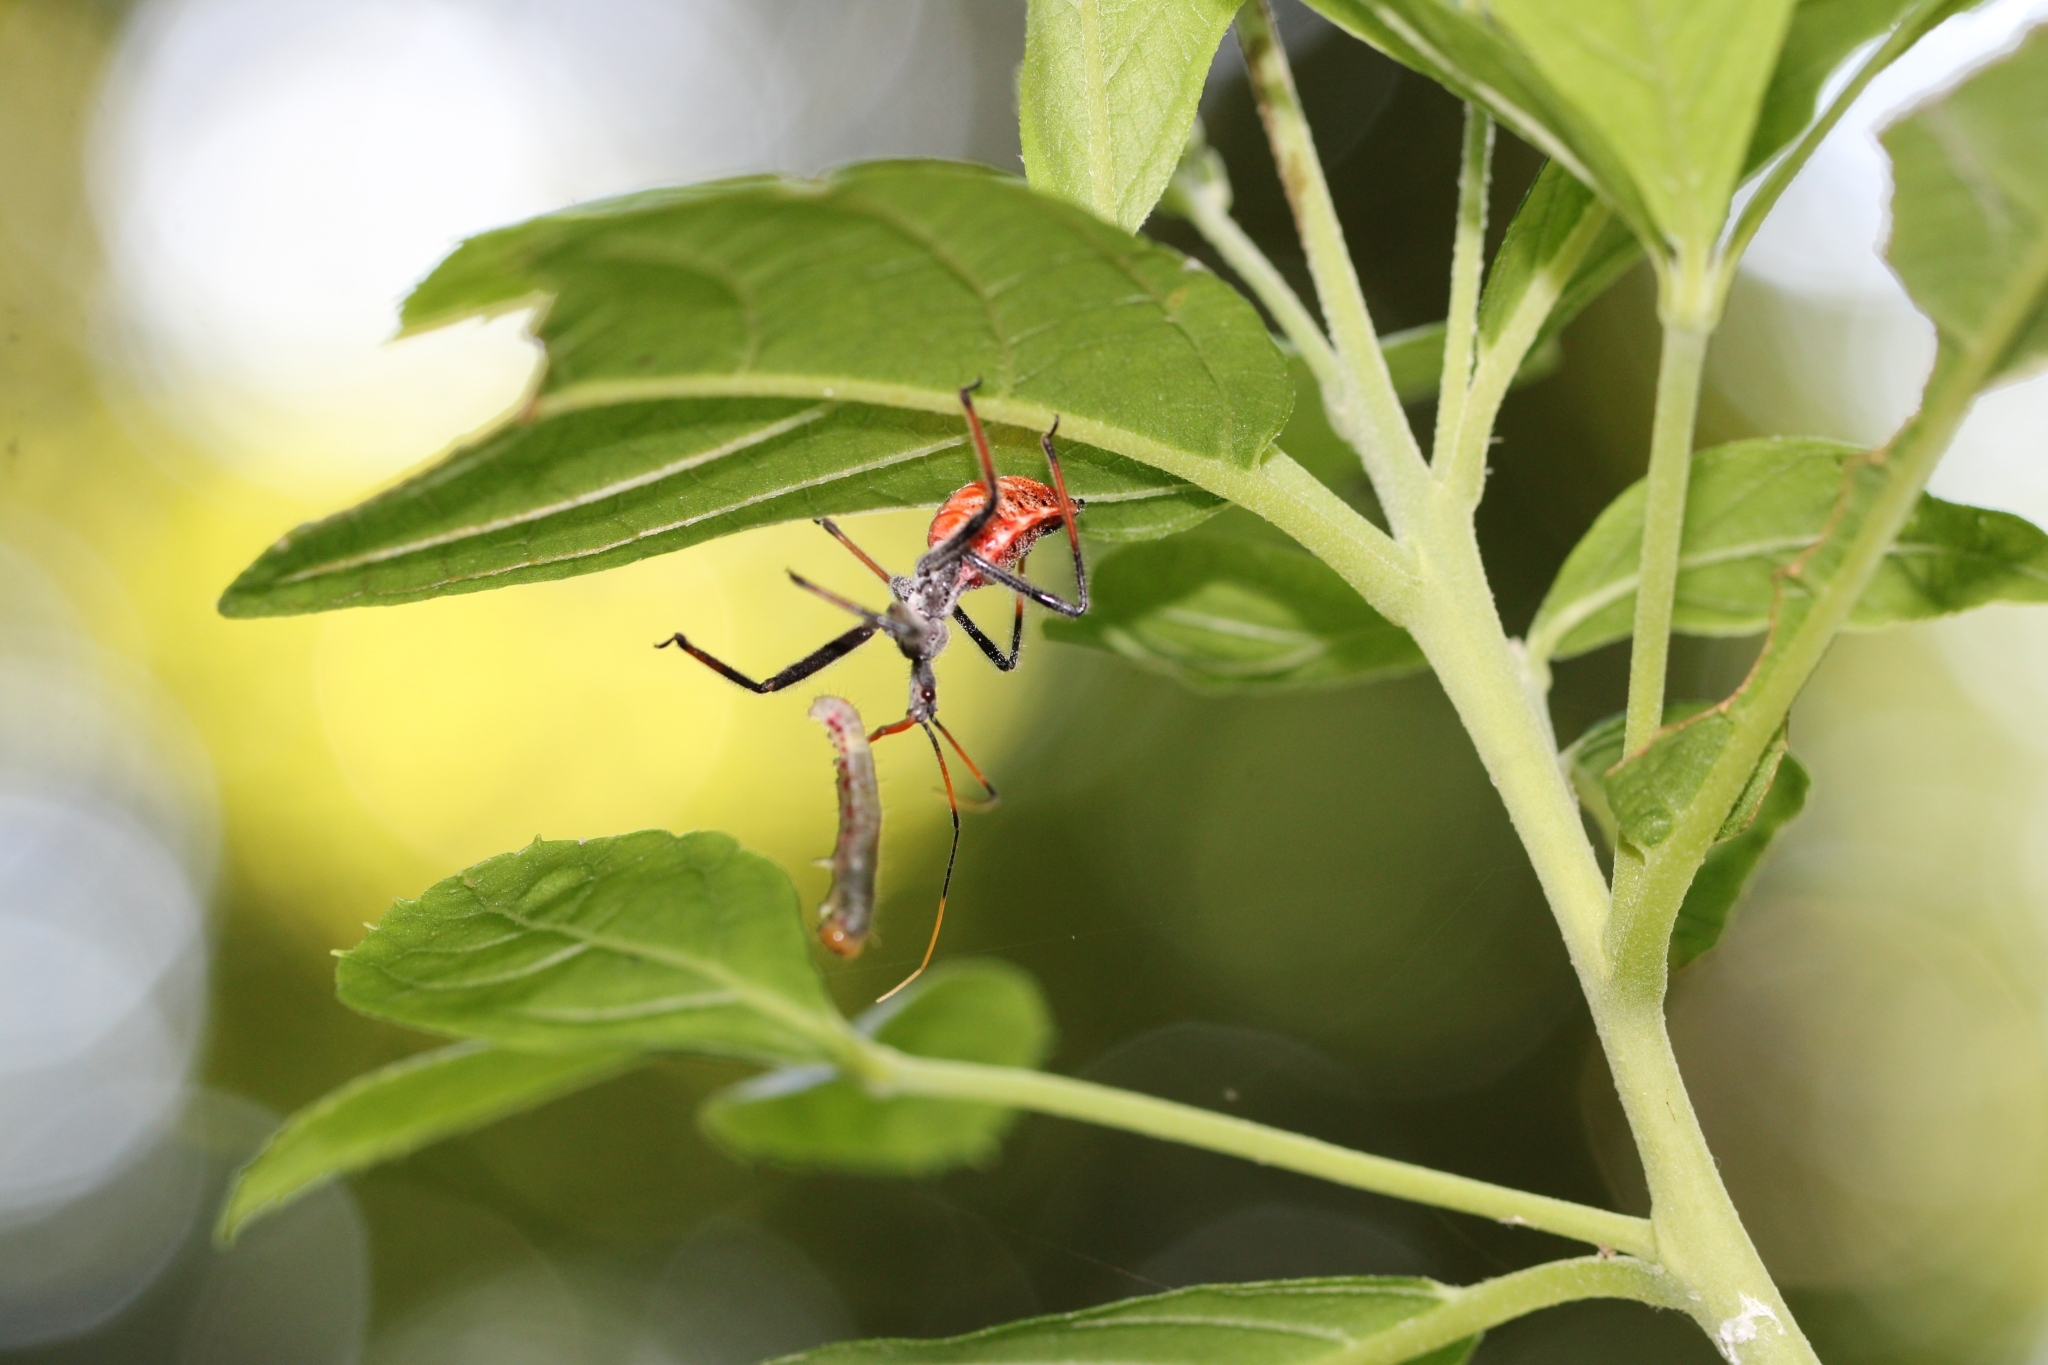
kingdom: Animalia
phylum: Arthropoda
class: Insecta
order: Hemiptera
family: Reduviidae
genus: Arilus
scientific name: Arilus cristatus
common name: North american wheel bug
